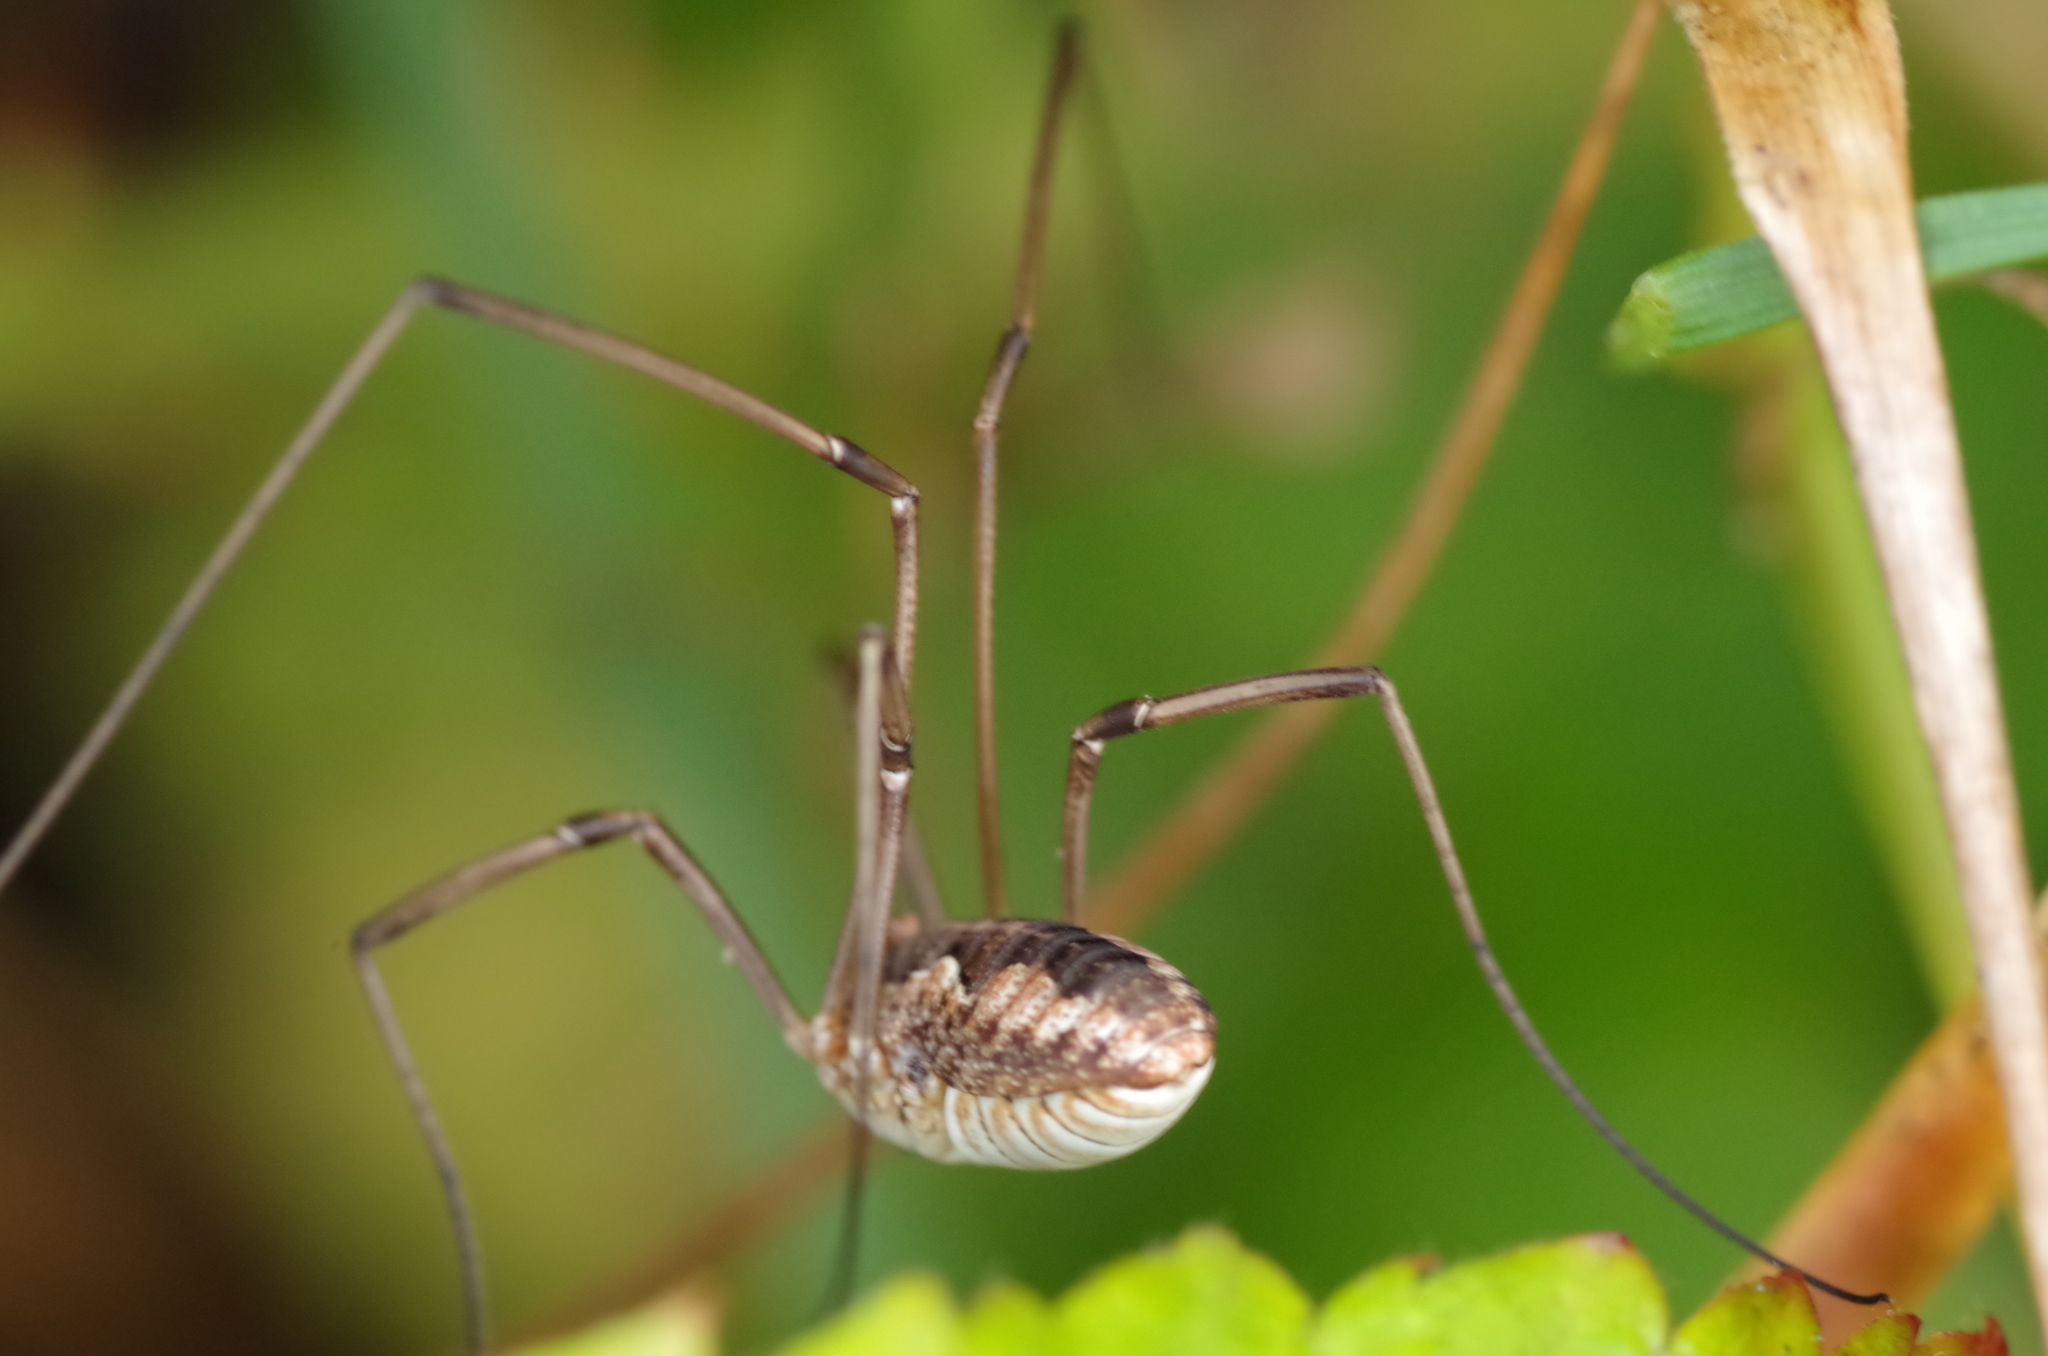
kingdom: Animalia
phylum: Arthropoda
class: Arachnida
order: Opiliones
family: Phalangiidae
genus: Phalangium
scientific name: Phalangium opilio
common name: Daddy longleg
